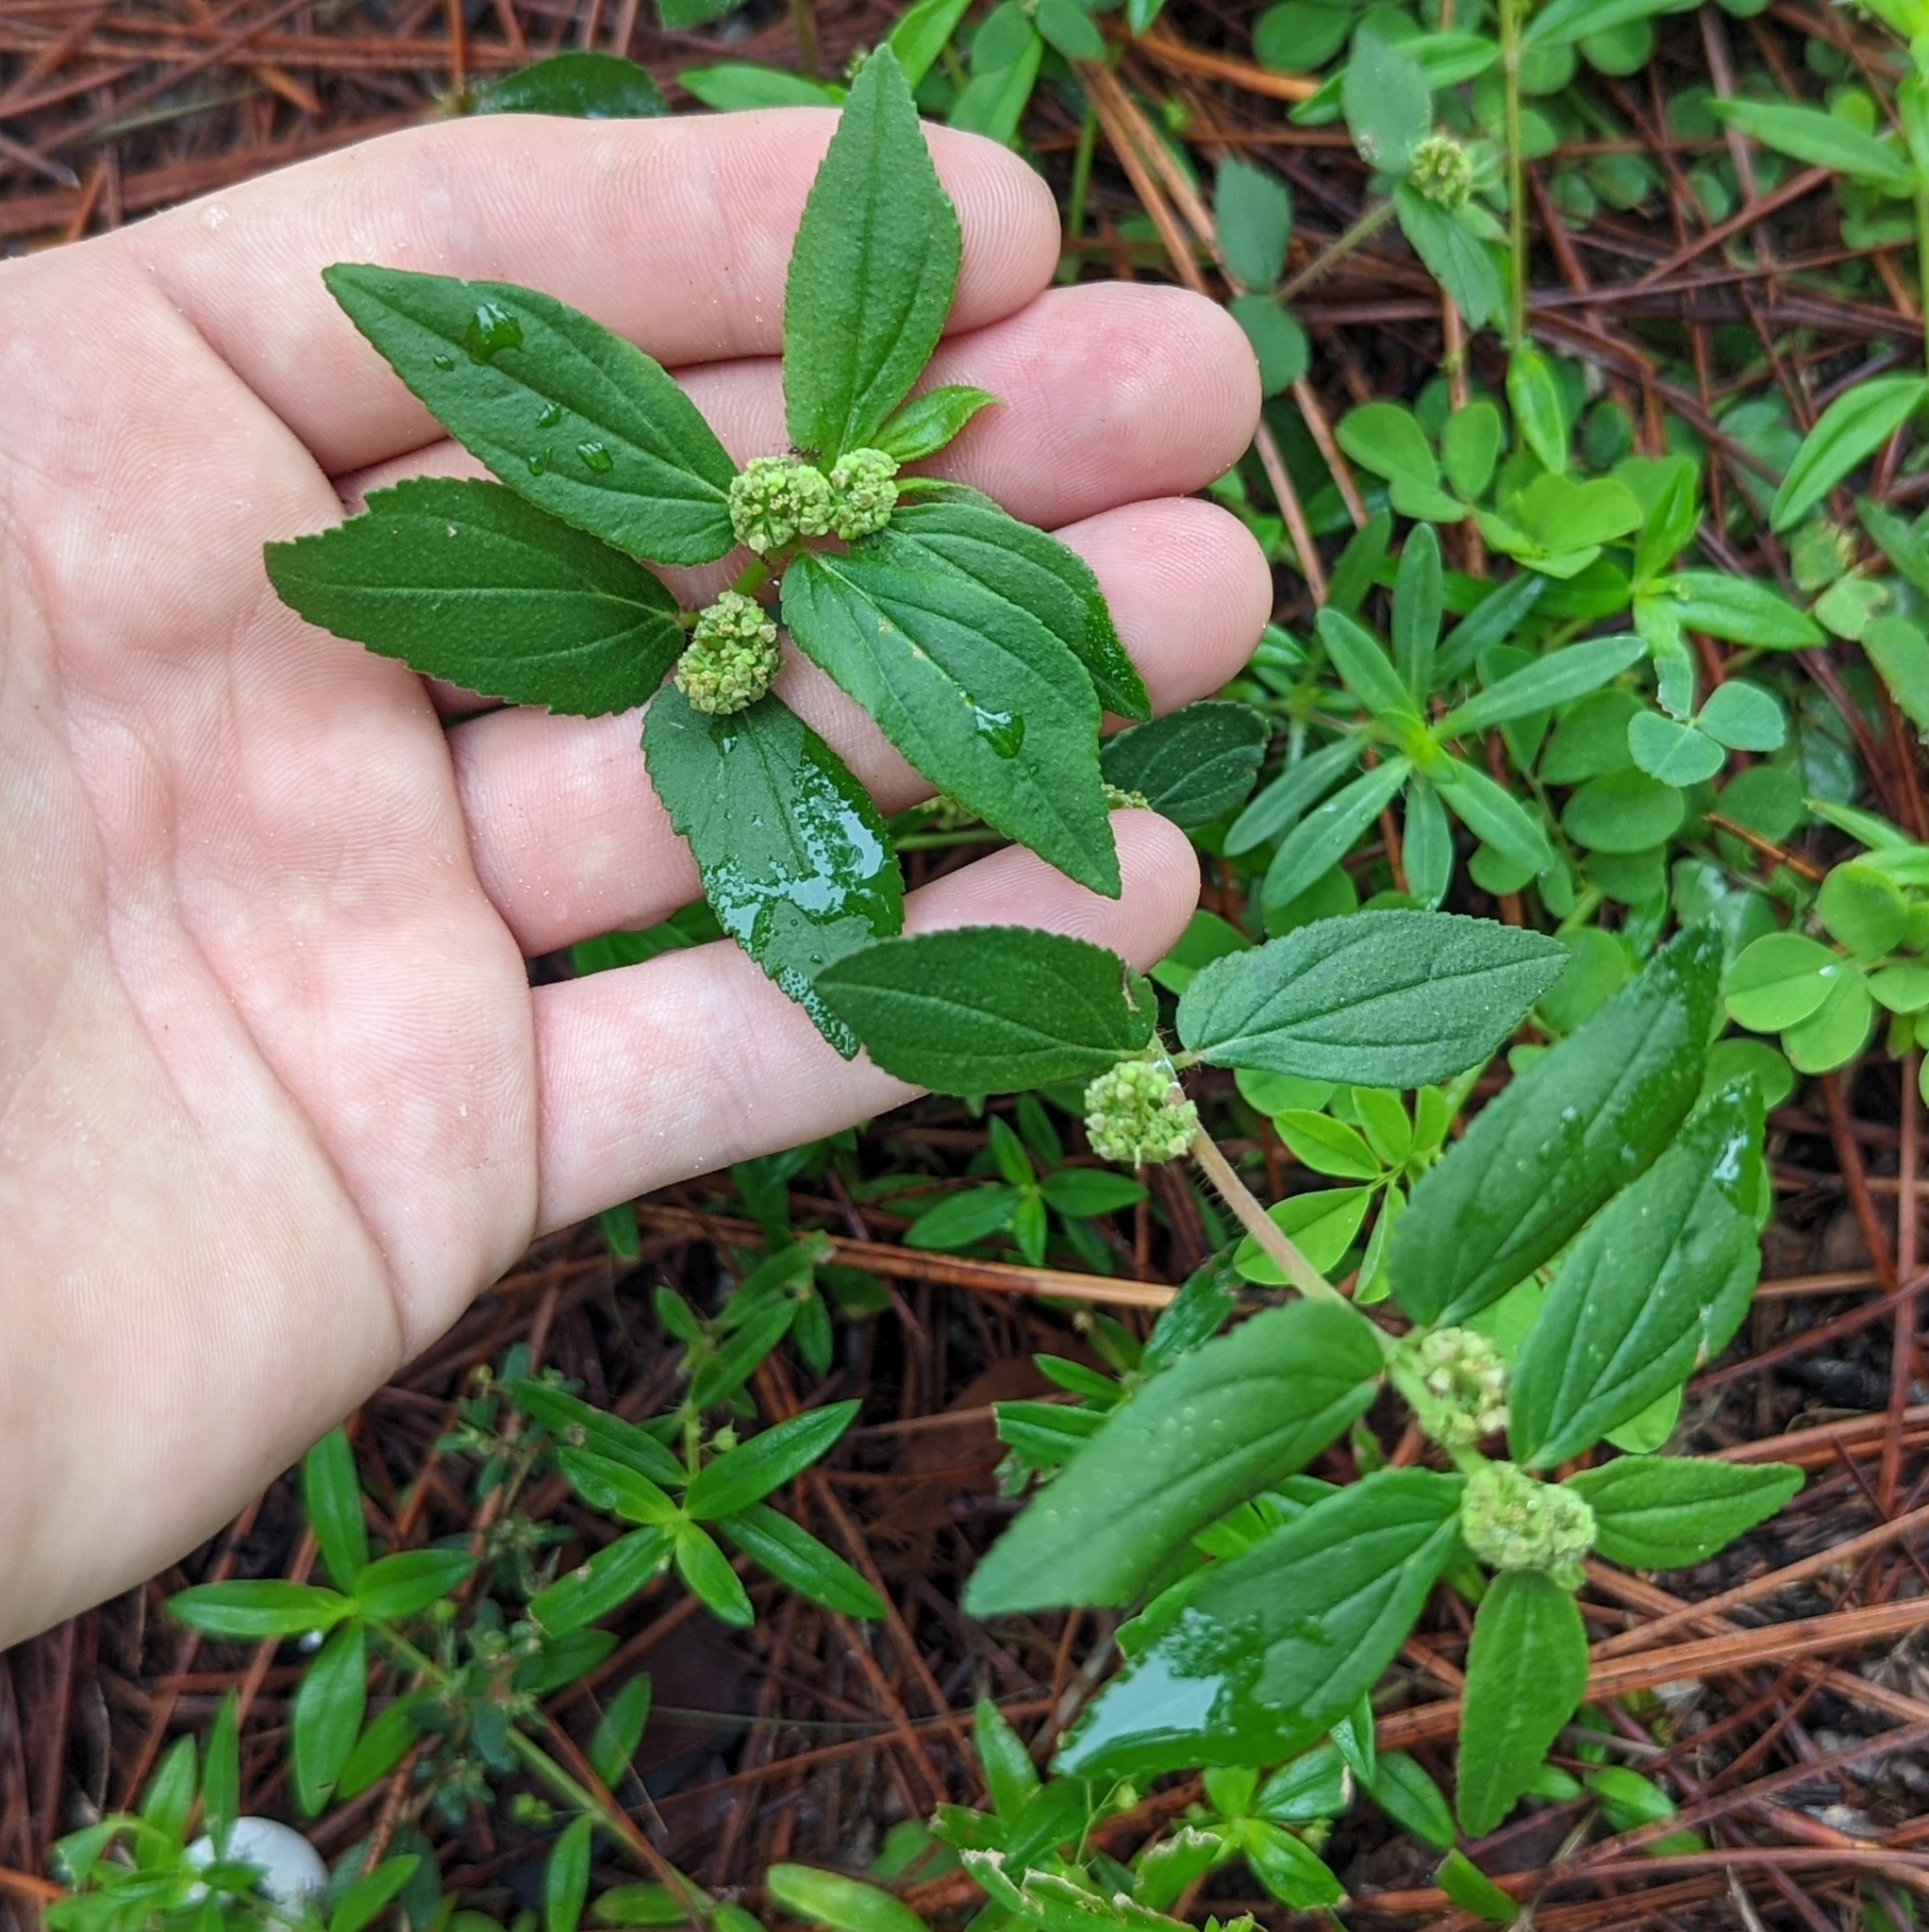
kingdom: Plantae
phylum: Tracheophyta
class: Magnoliopsida
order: Malpighiales
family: Euphorbiaceae
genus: Euphorbia
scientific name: Euphorbia hirta
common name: Pillpod sandmat
